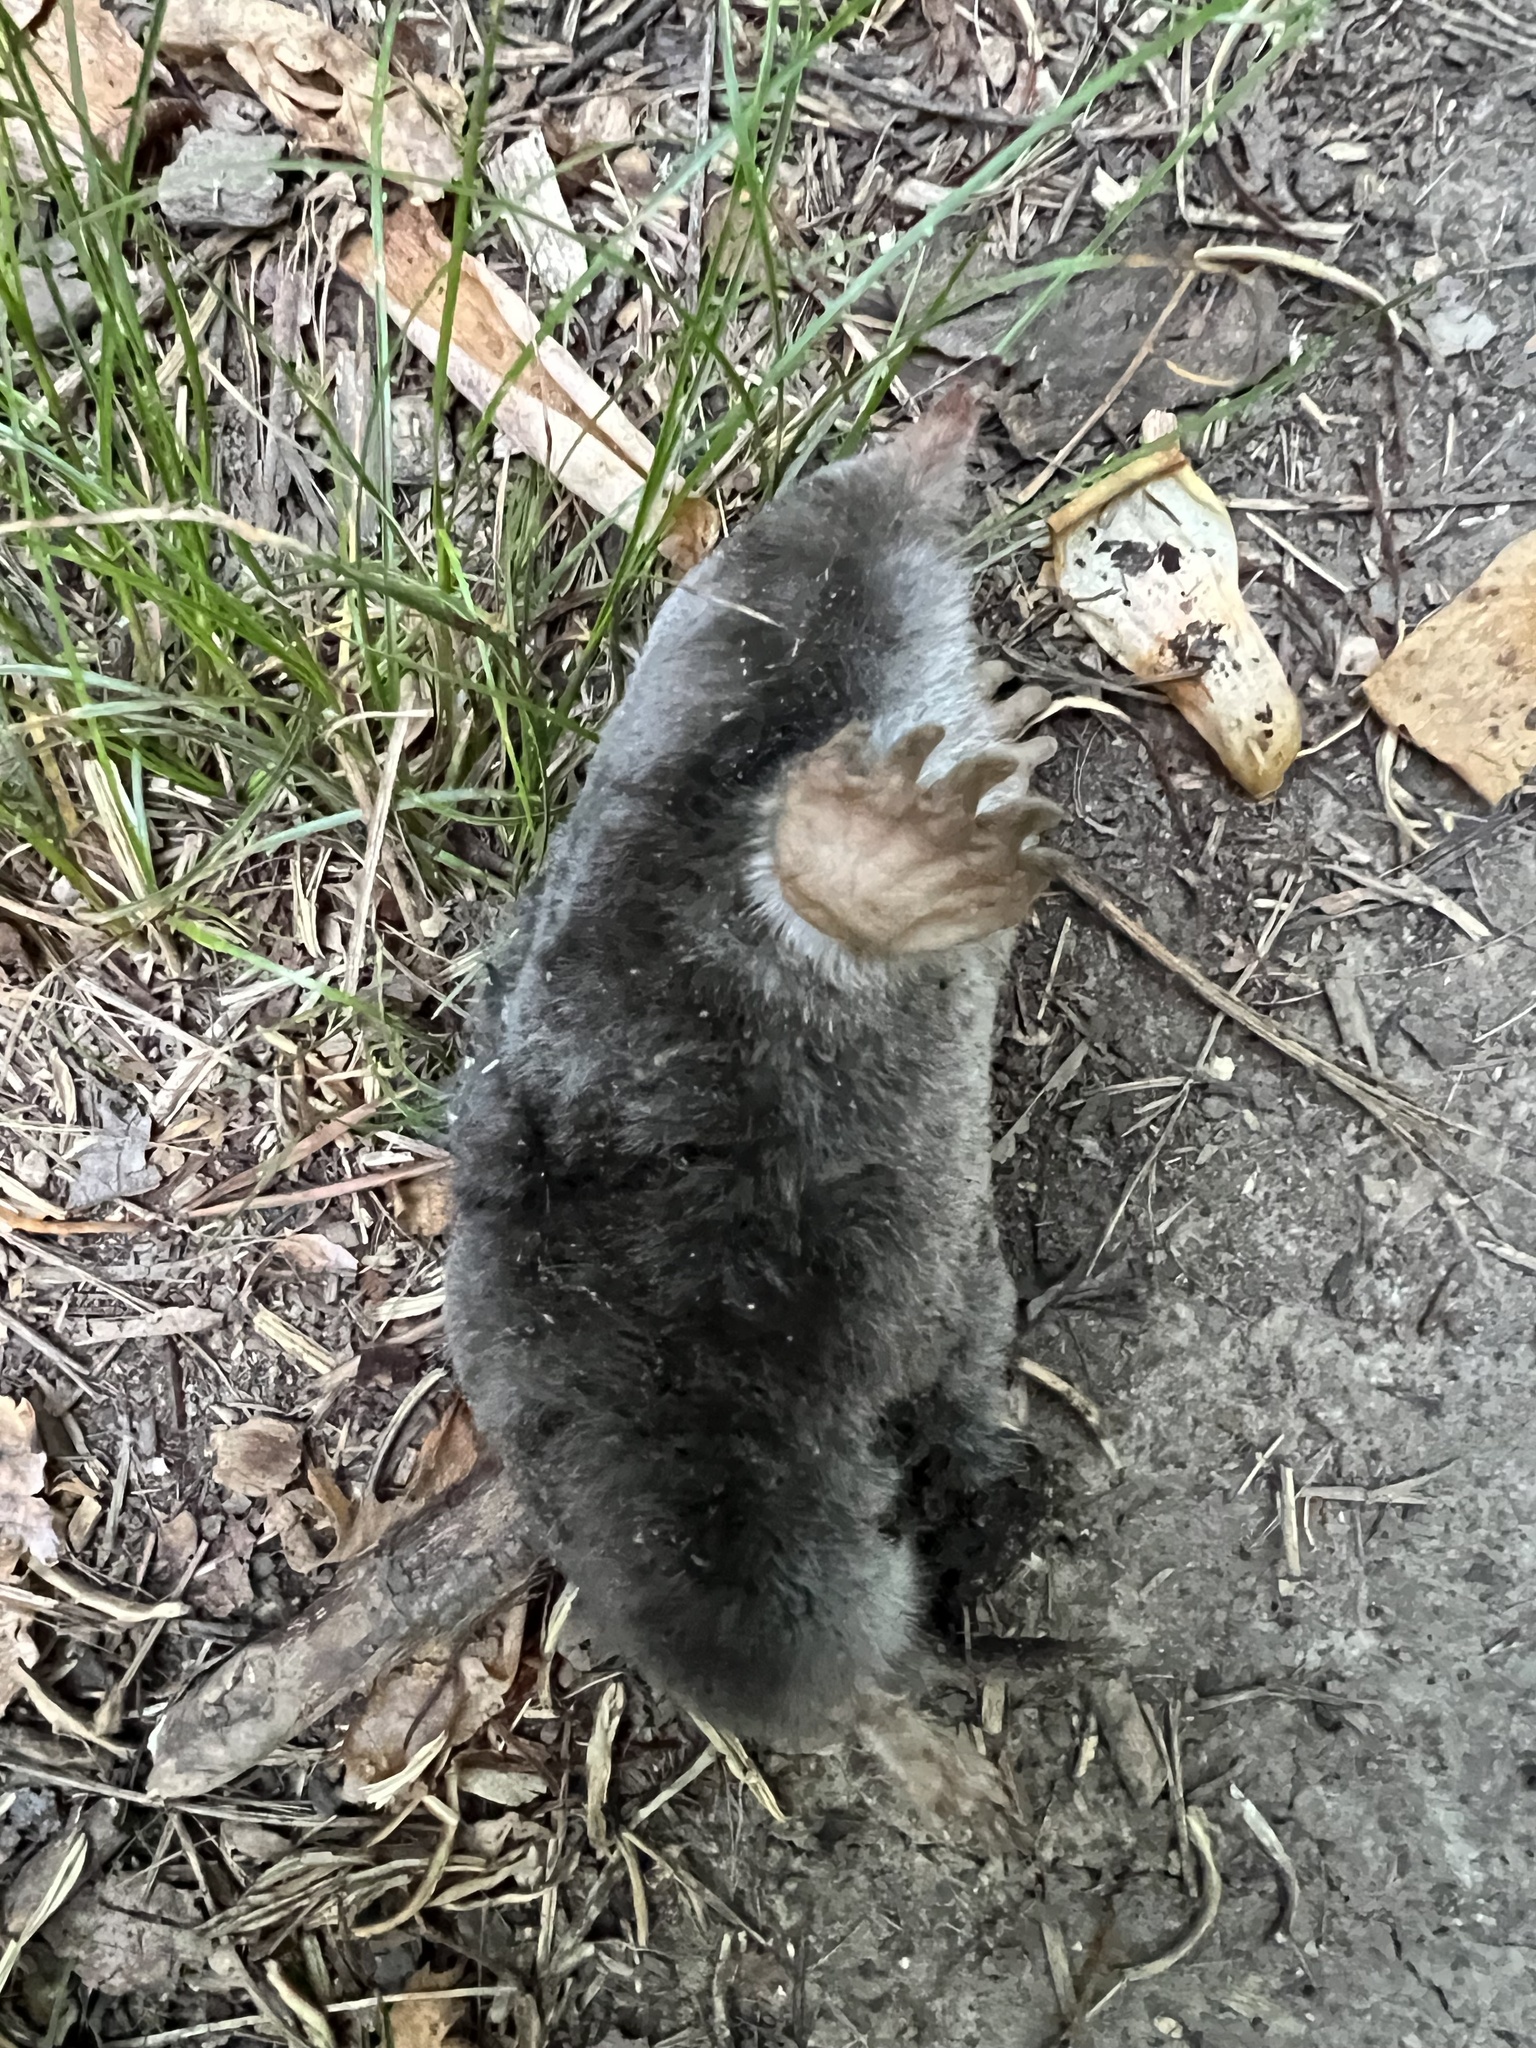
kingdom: Animalia
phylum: Chordata
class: Mammalia
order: Soricomorpha
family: Talpidae
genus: Scalopus
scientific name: Scalopus aquaticus
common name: Eastern mole
